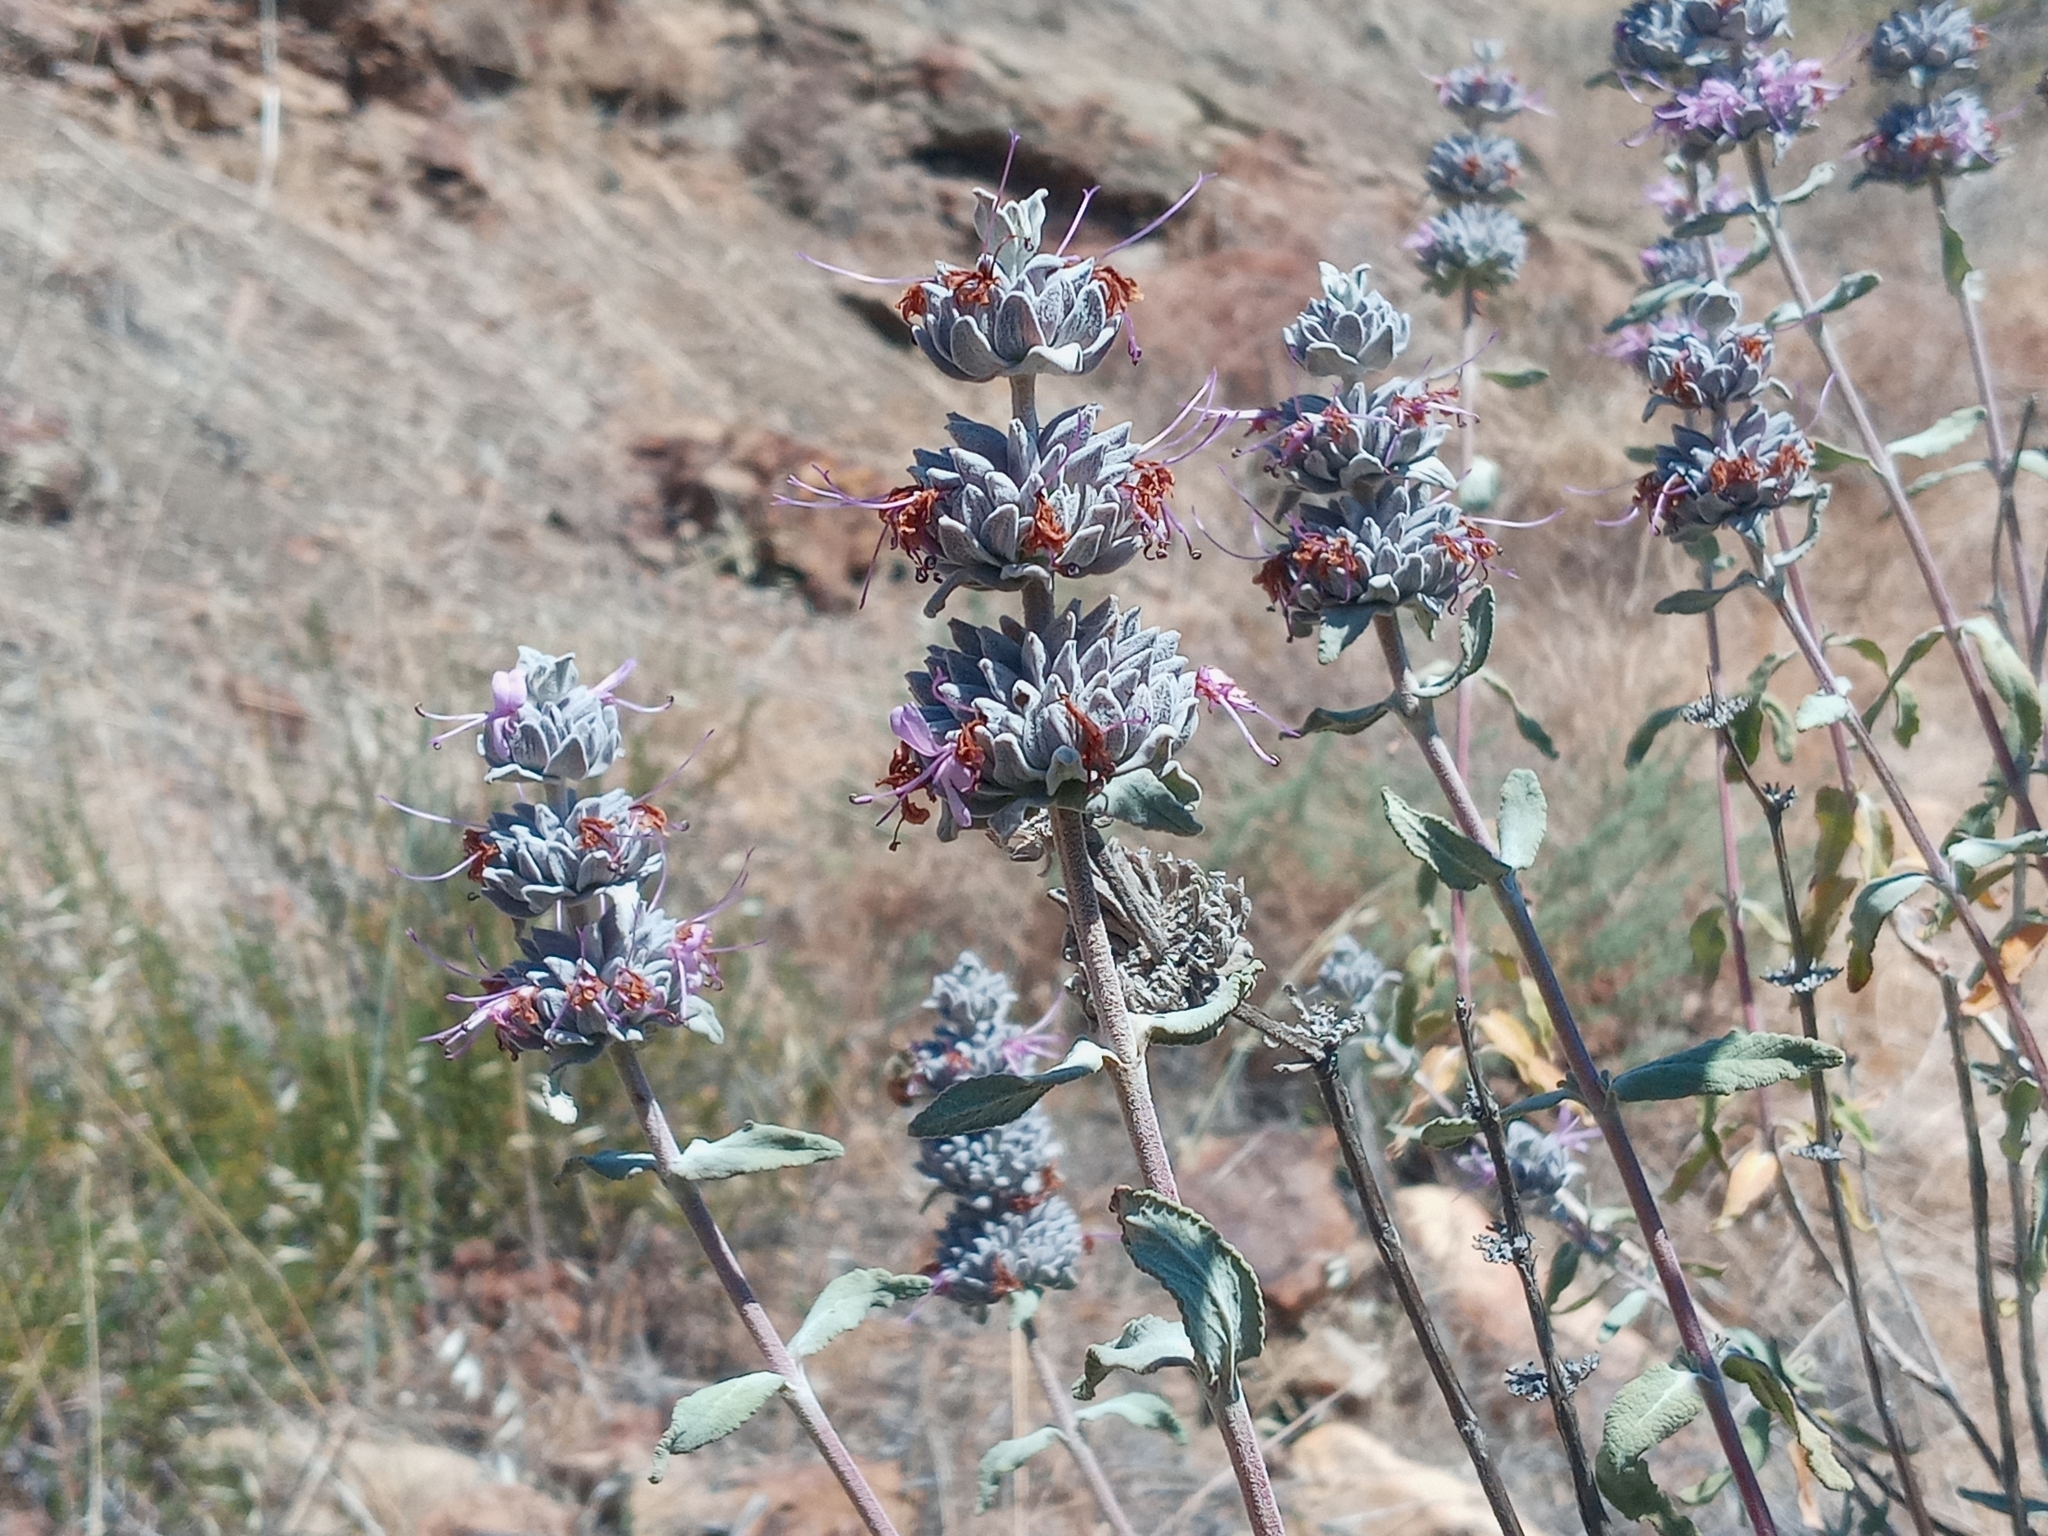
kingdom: Plantae
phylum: Tracheophyta
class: Magnoliopsida
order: Lamiales
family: Lamiaceae
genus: Salvia
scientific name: Salvia leucophylla
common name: Purple sage
